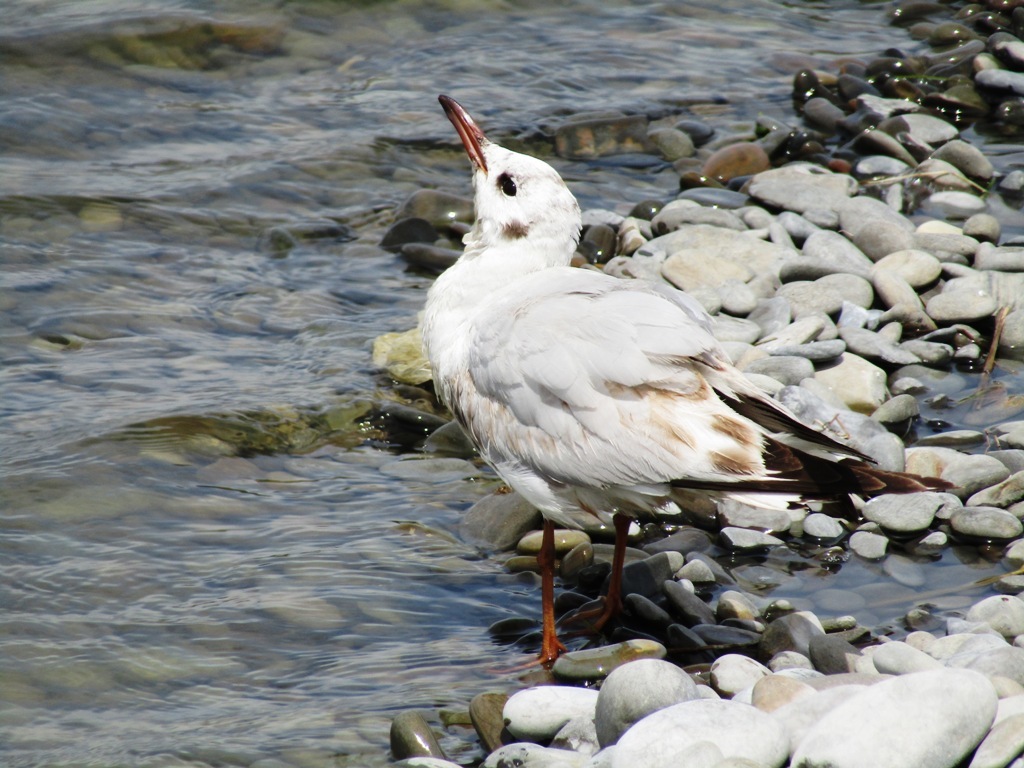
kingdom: Animalia
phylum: Chordata
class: Aves
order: Charadriiformes
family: Laridae
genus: Chroicocephalus
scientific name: Chroicocephalus ridibundus
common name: Black-headed gull
